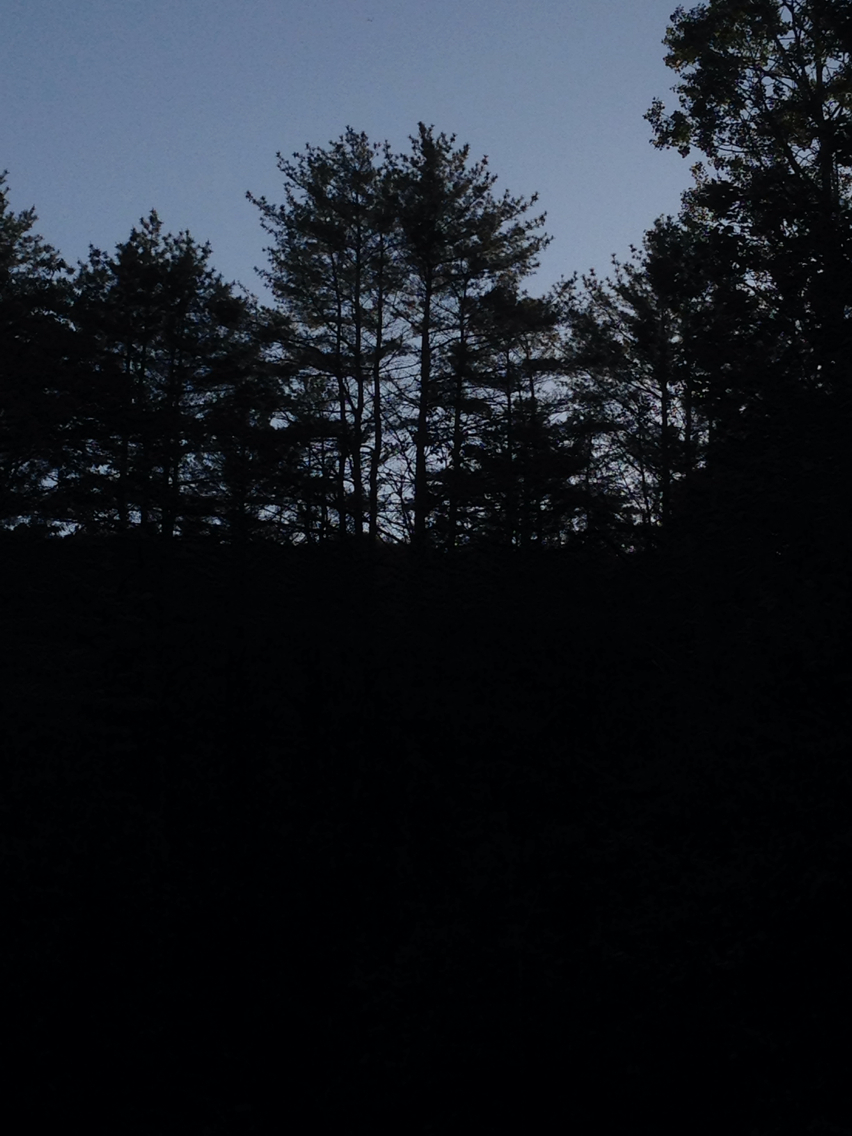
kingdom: Plantae
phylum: Tracheophyta
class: Pinopsida
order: Pinales
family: Pinaceae
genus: Pinus
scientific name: Pinus strobus
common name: Weymouth pine
